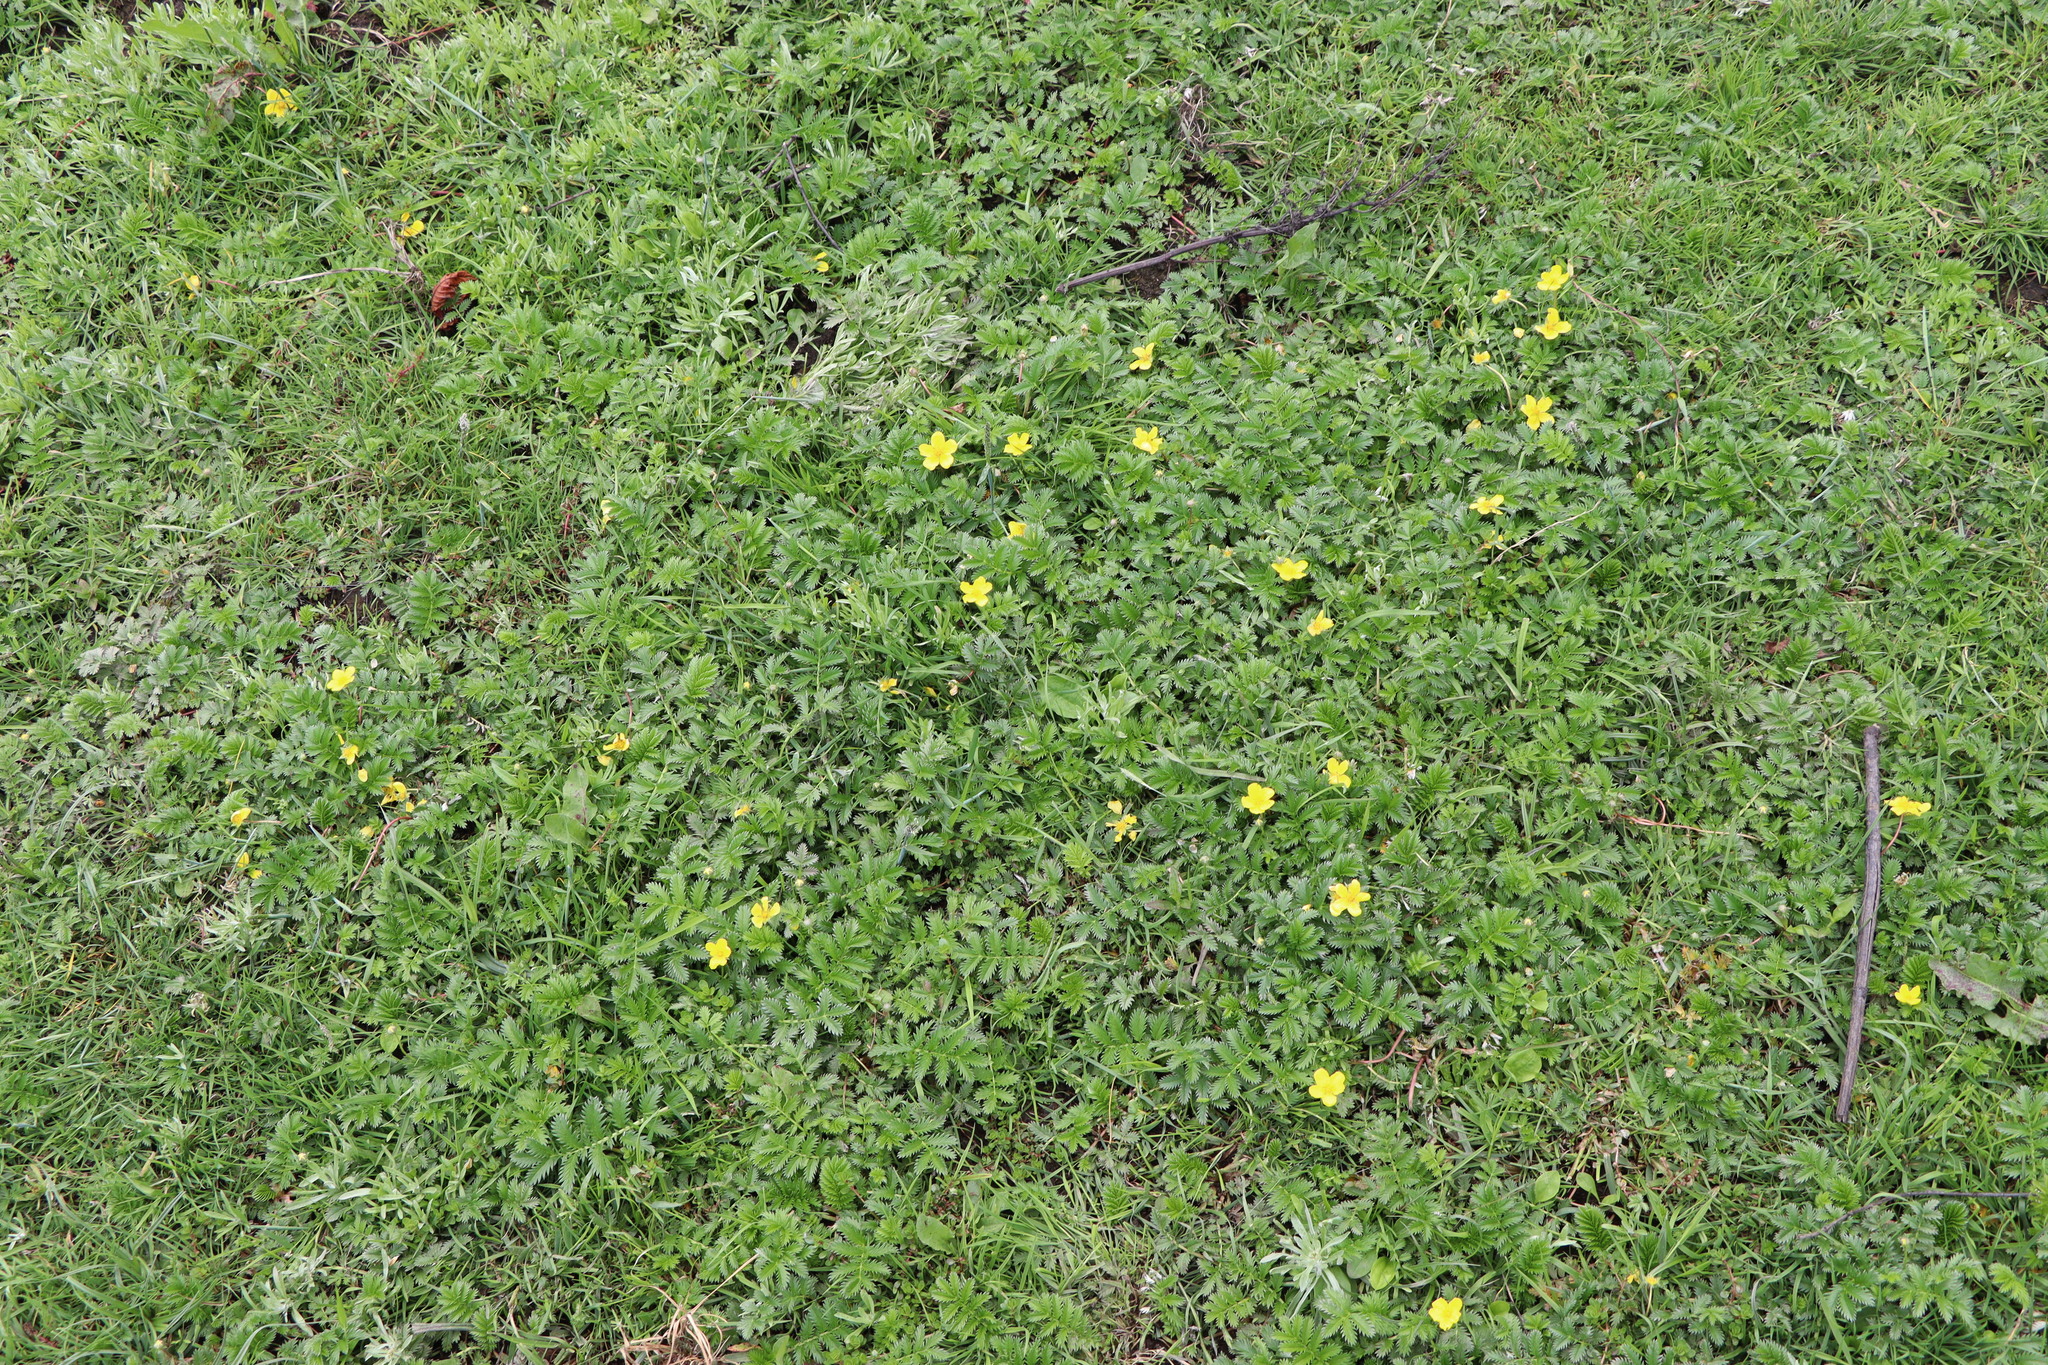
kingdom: Plantae
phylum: Tracheophyta
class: Magnoliopsida
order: Rosales
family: Rosaceae
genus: Argentina
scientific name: Argentina anserina
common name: Common silverweed
